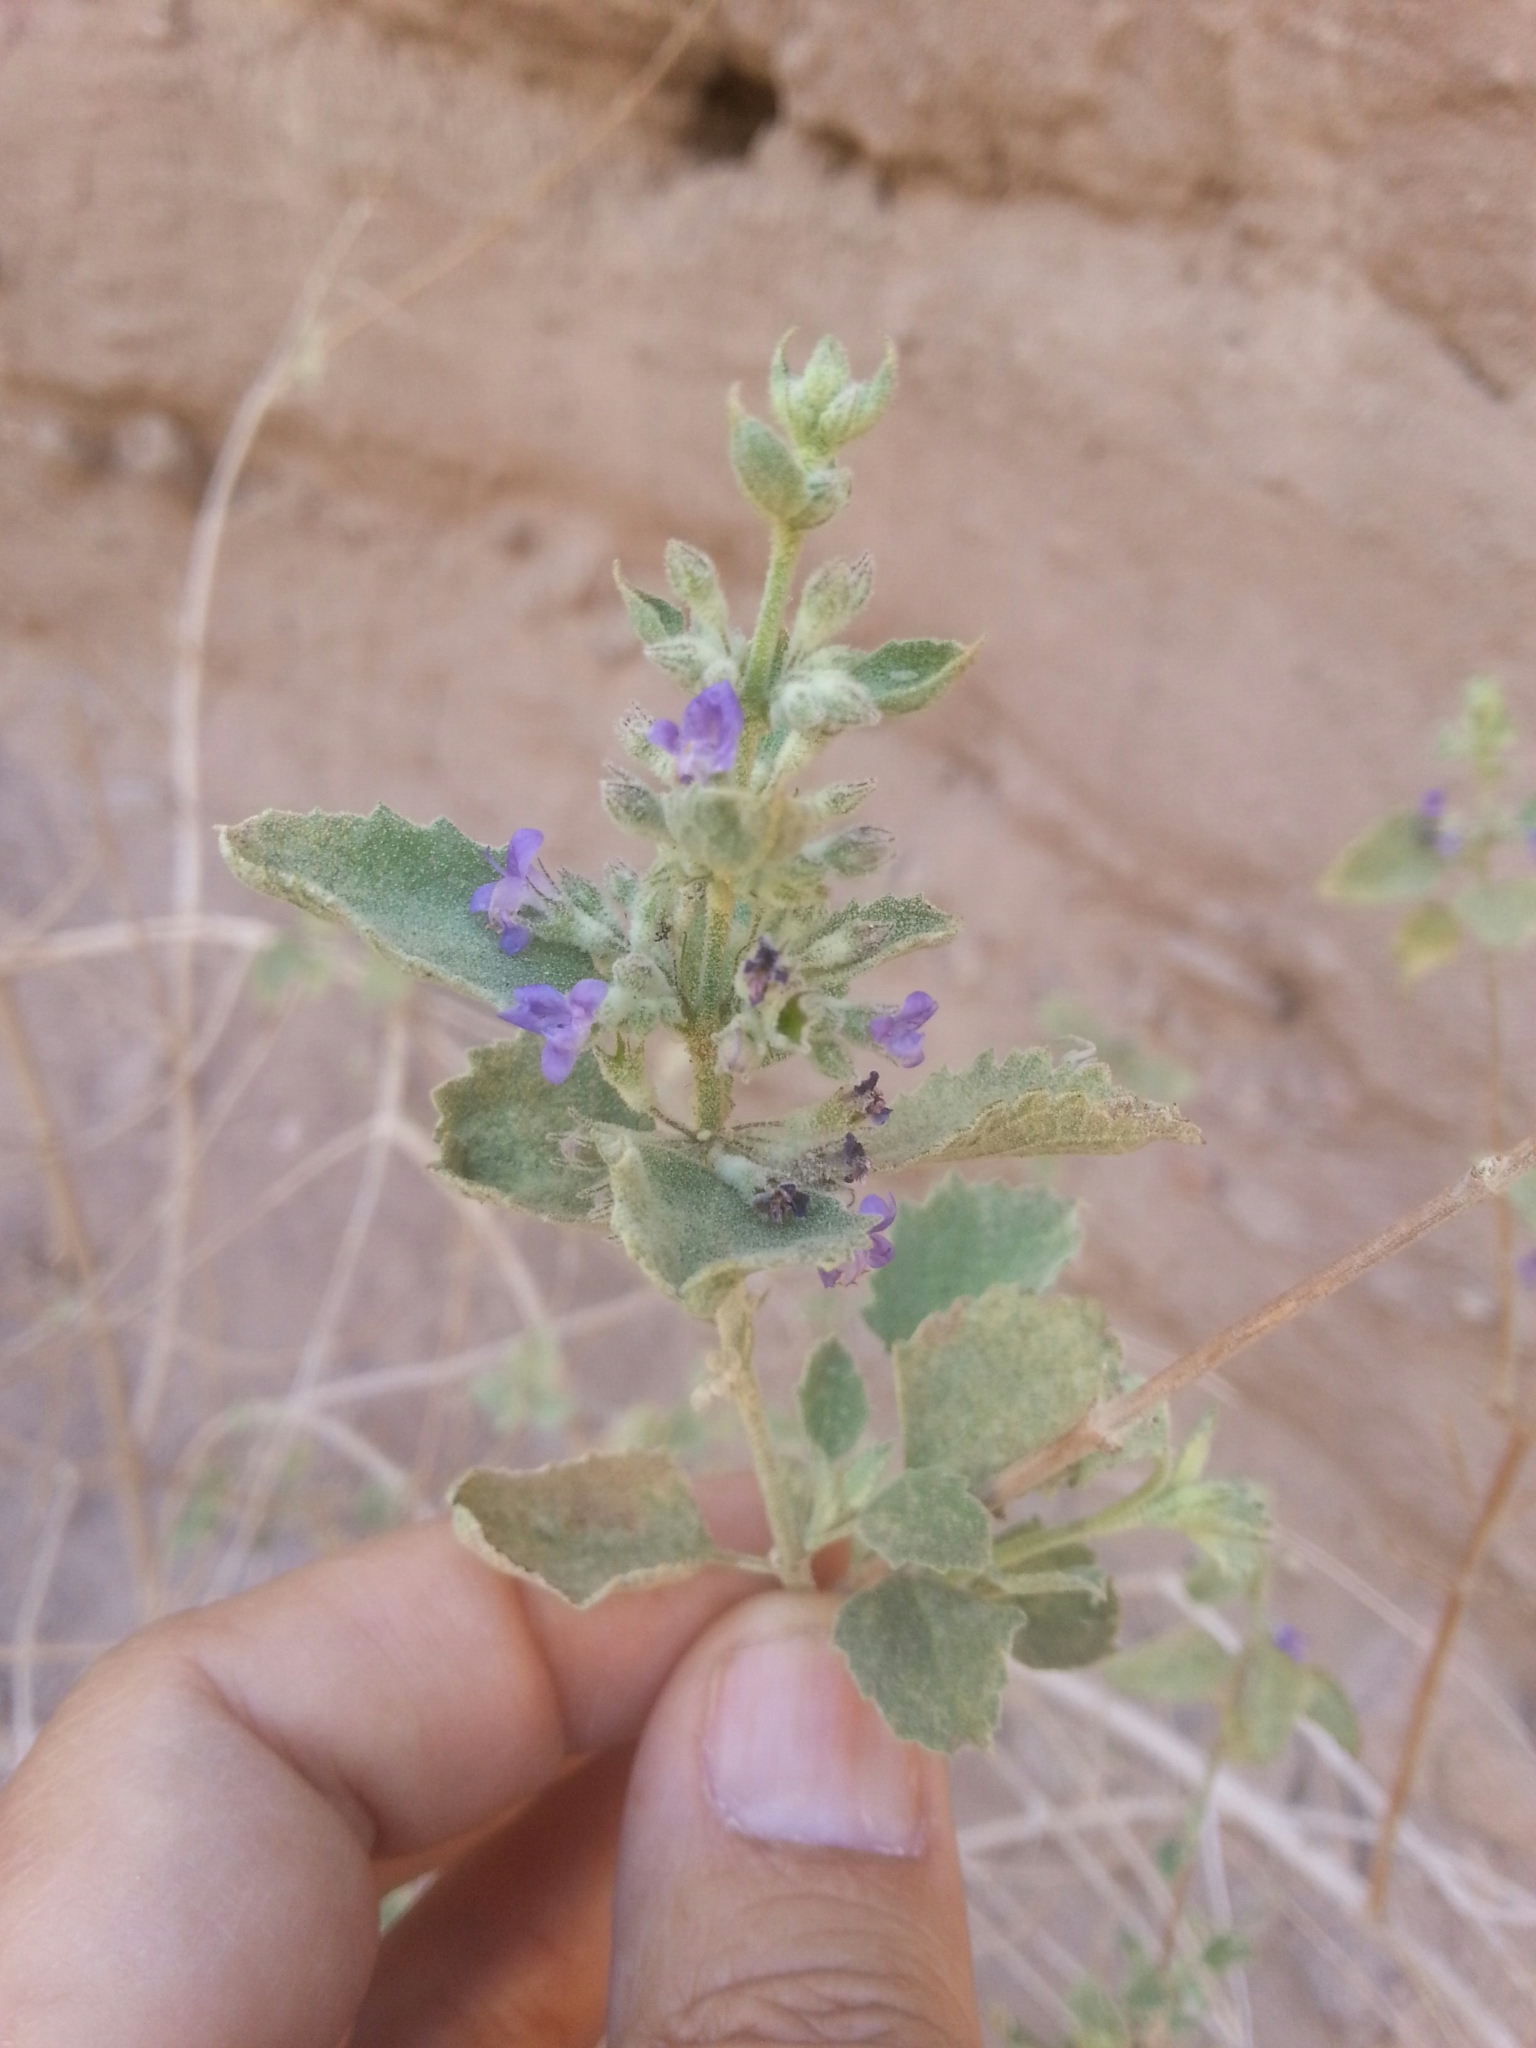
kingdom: Plantae
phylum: Tracheophyta
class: Magnoliopsida
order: Lamiales
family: Lamiaceae
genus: Condea
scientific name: Condea emoryi
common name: Chia
